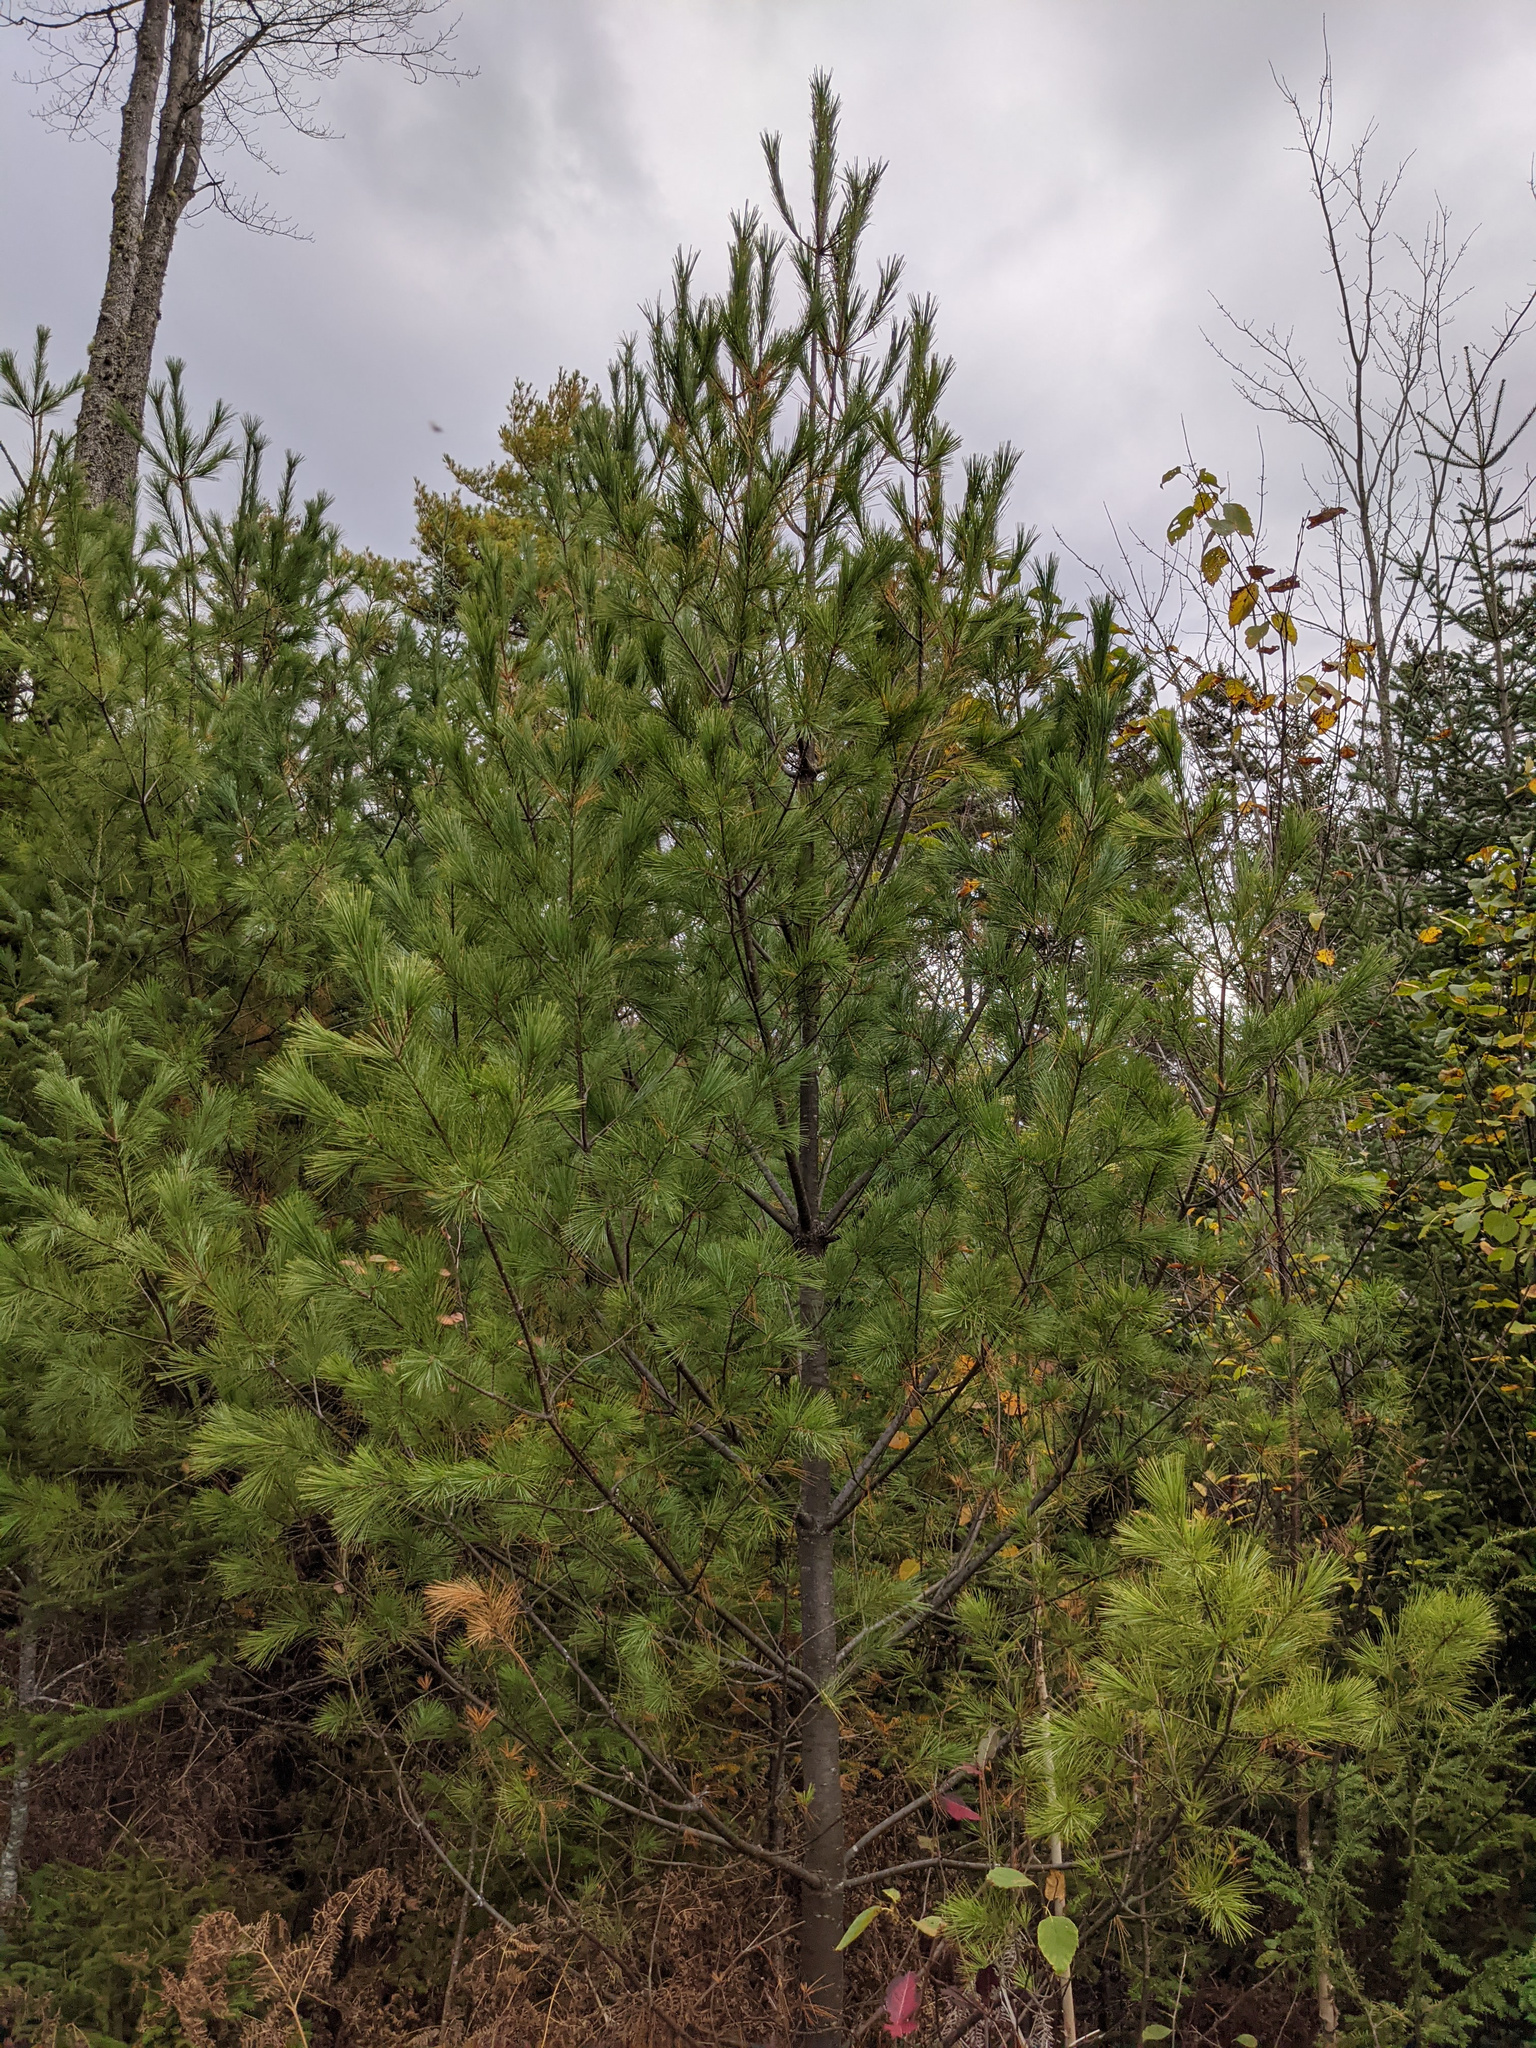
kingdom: Plantae
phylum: Tracheophyta
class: Pinopsida
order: Pinales
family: Pinaceae
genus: Pinus
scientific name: Pinus strobus
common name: Weymouth pine
